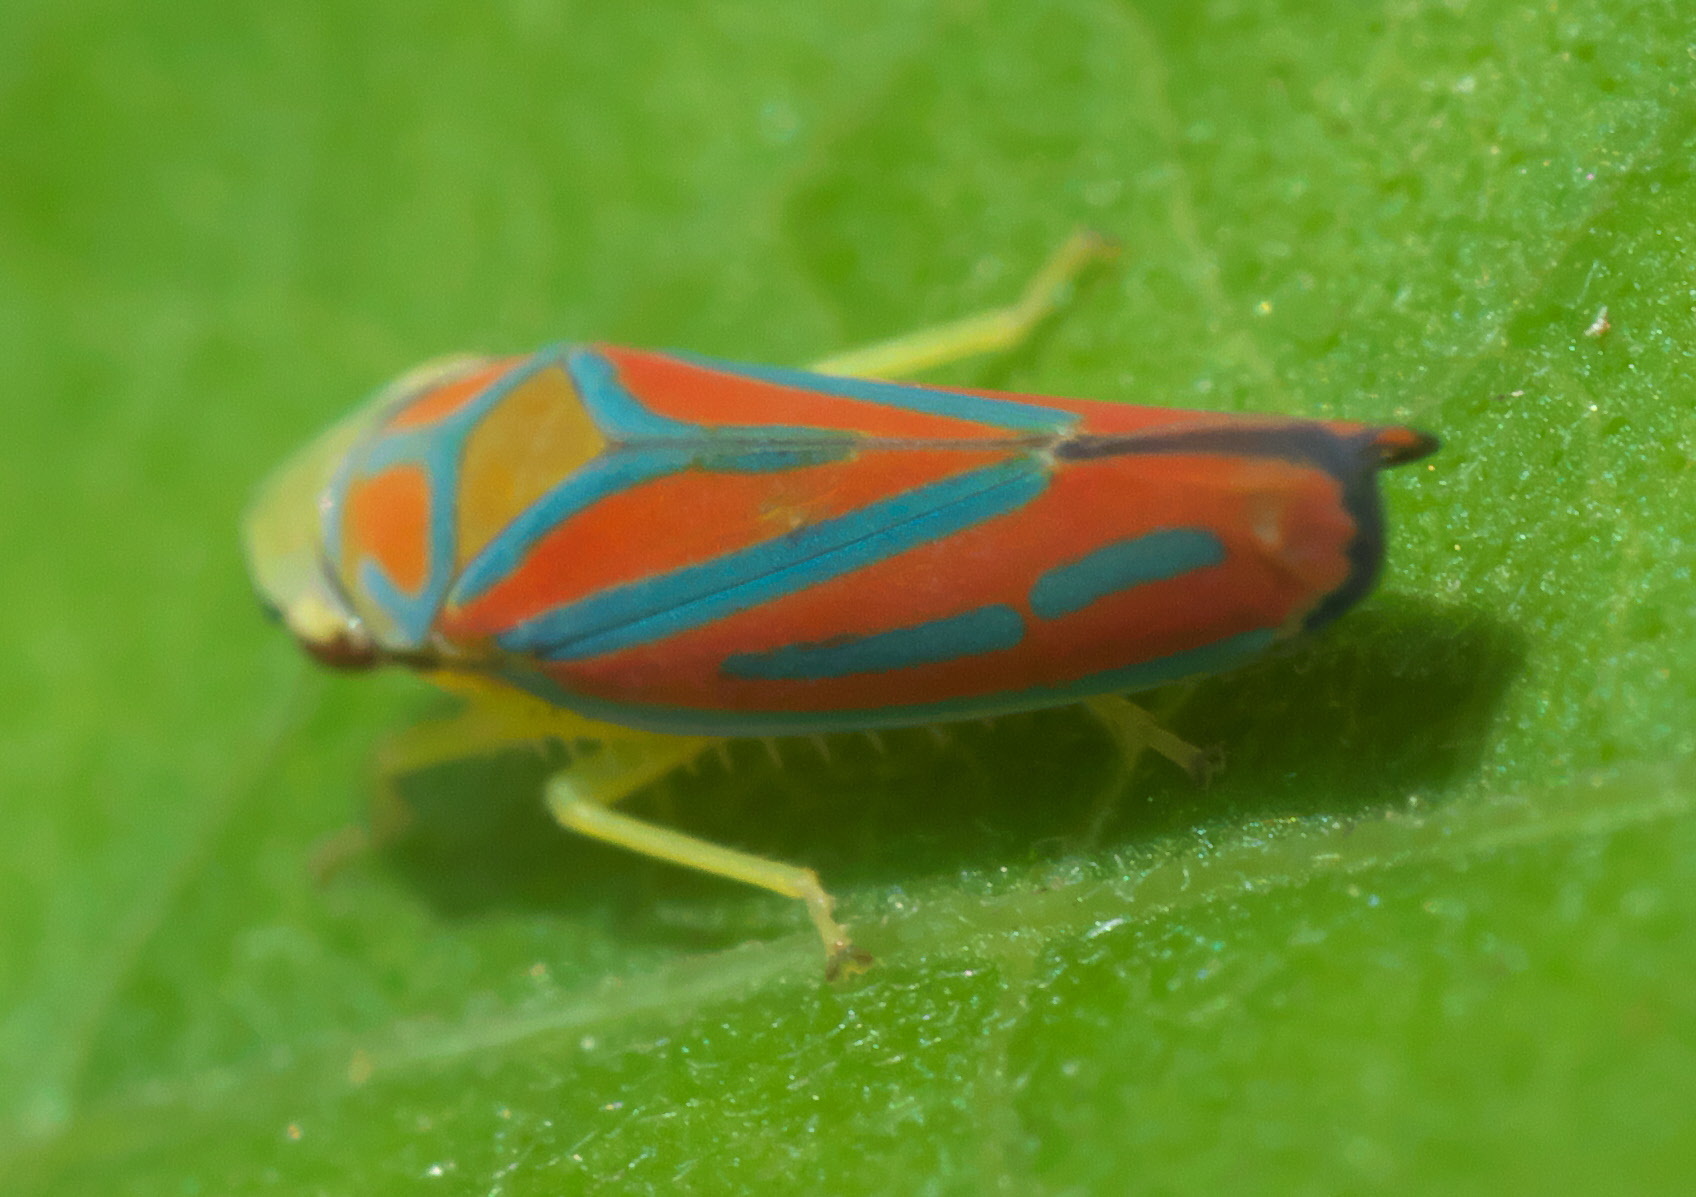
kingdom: Animalia
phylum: Arthropoda
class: Insecta
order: Hemiptera
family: Cicadellidae
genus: Graphocephala
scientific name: Graphocephala coccinea
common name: Candy-striped leafhopper
